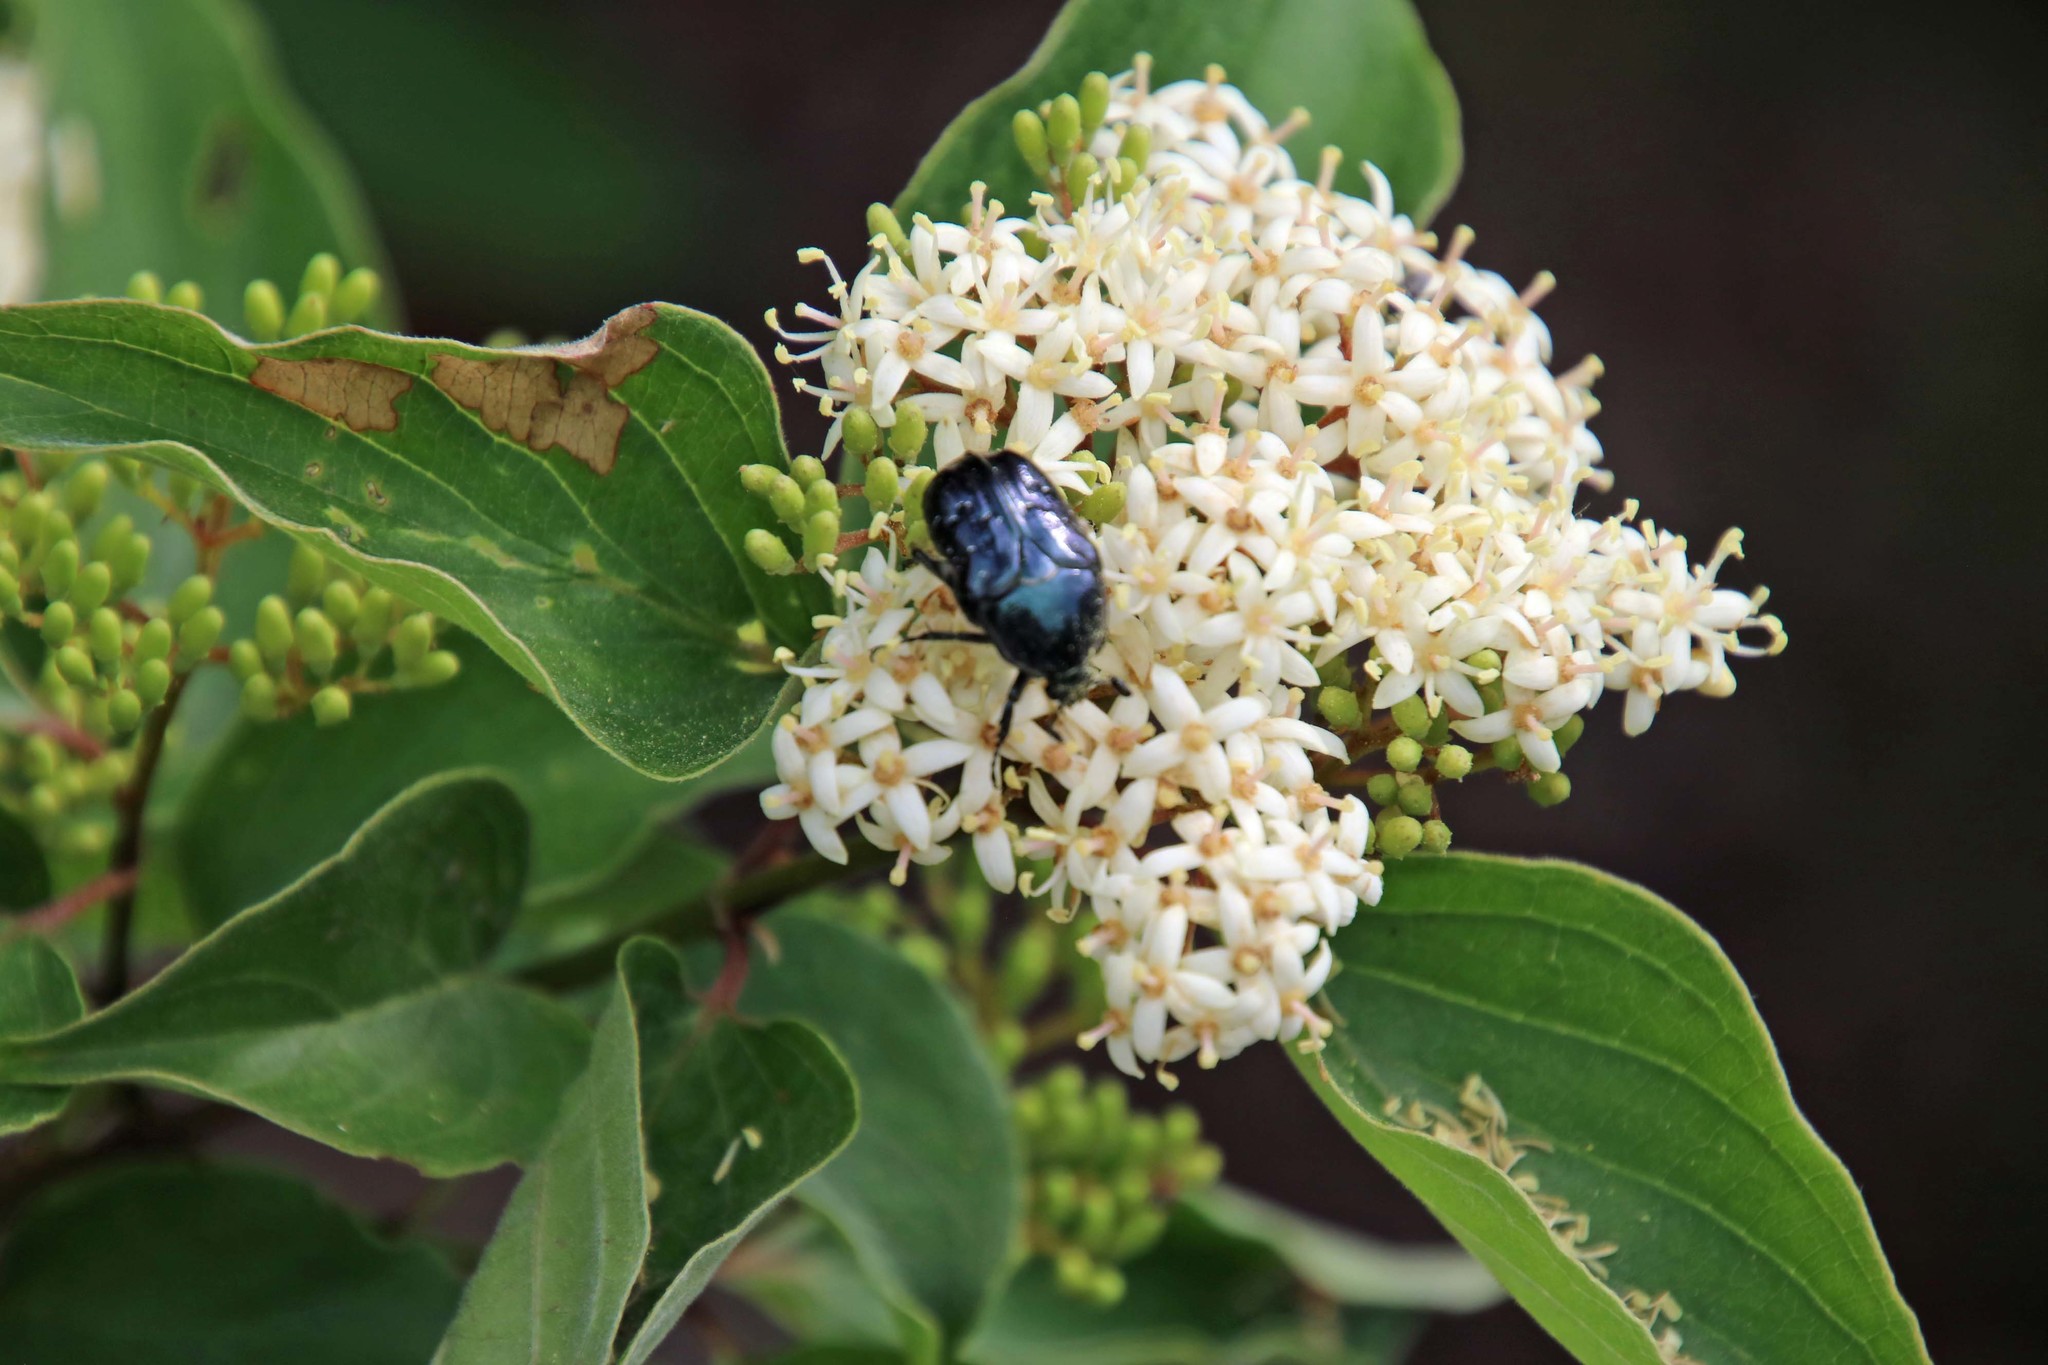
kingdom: Animalia
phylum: Arthropoda
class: Insecta
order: Coleoptera
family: Scarabaeidae
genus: Euphoria
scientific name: Euphoria sepulcralis
